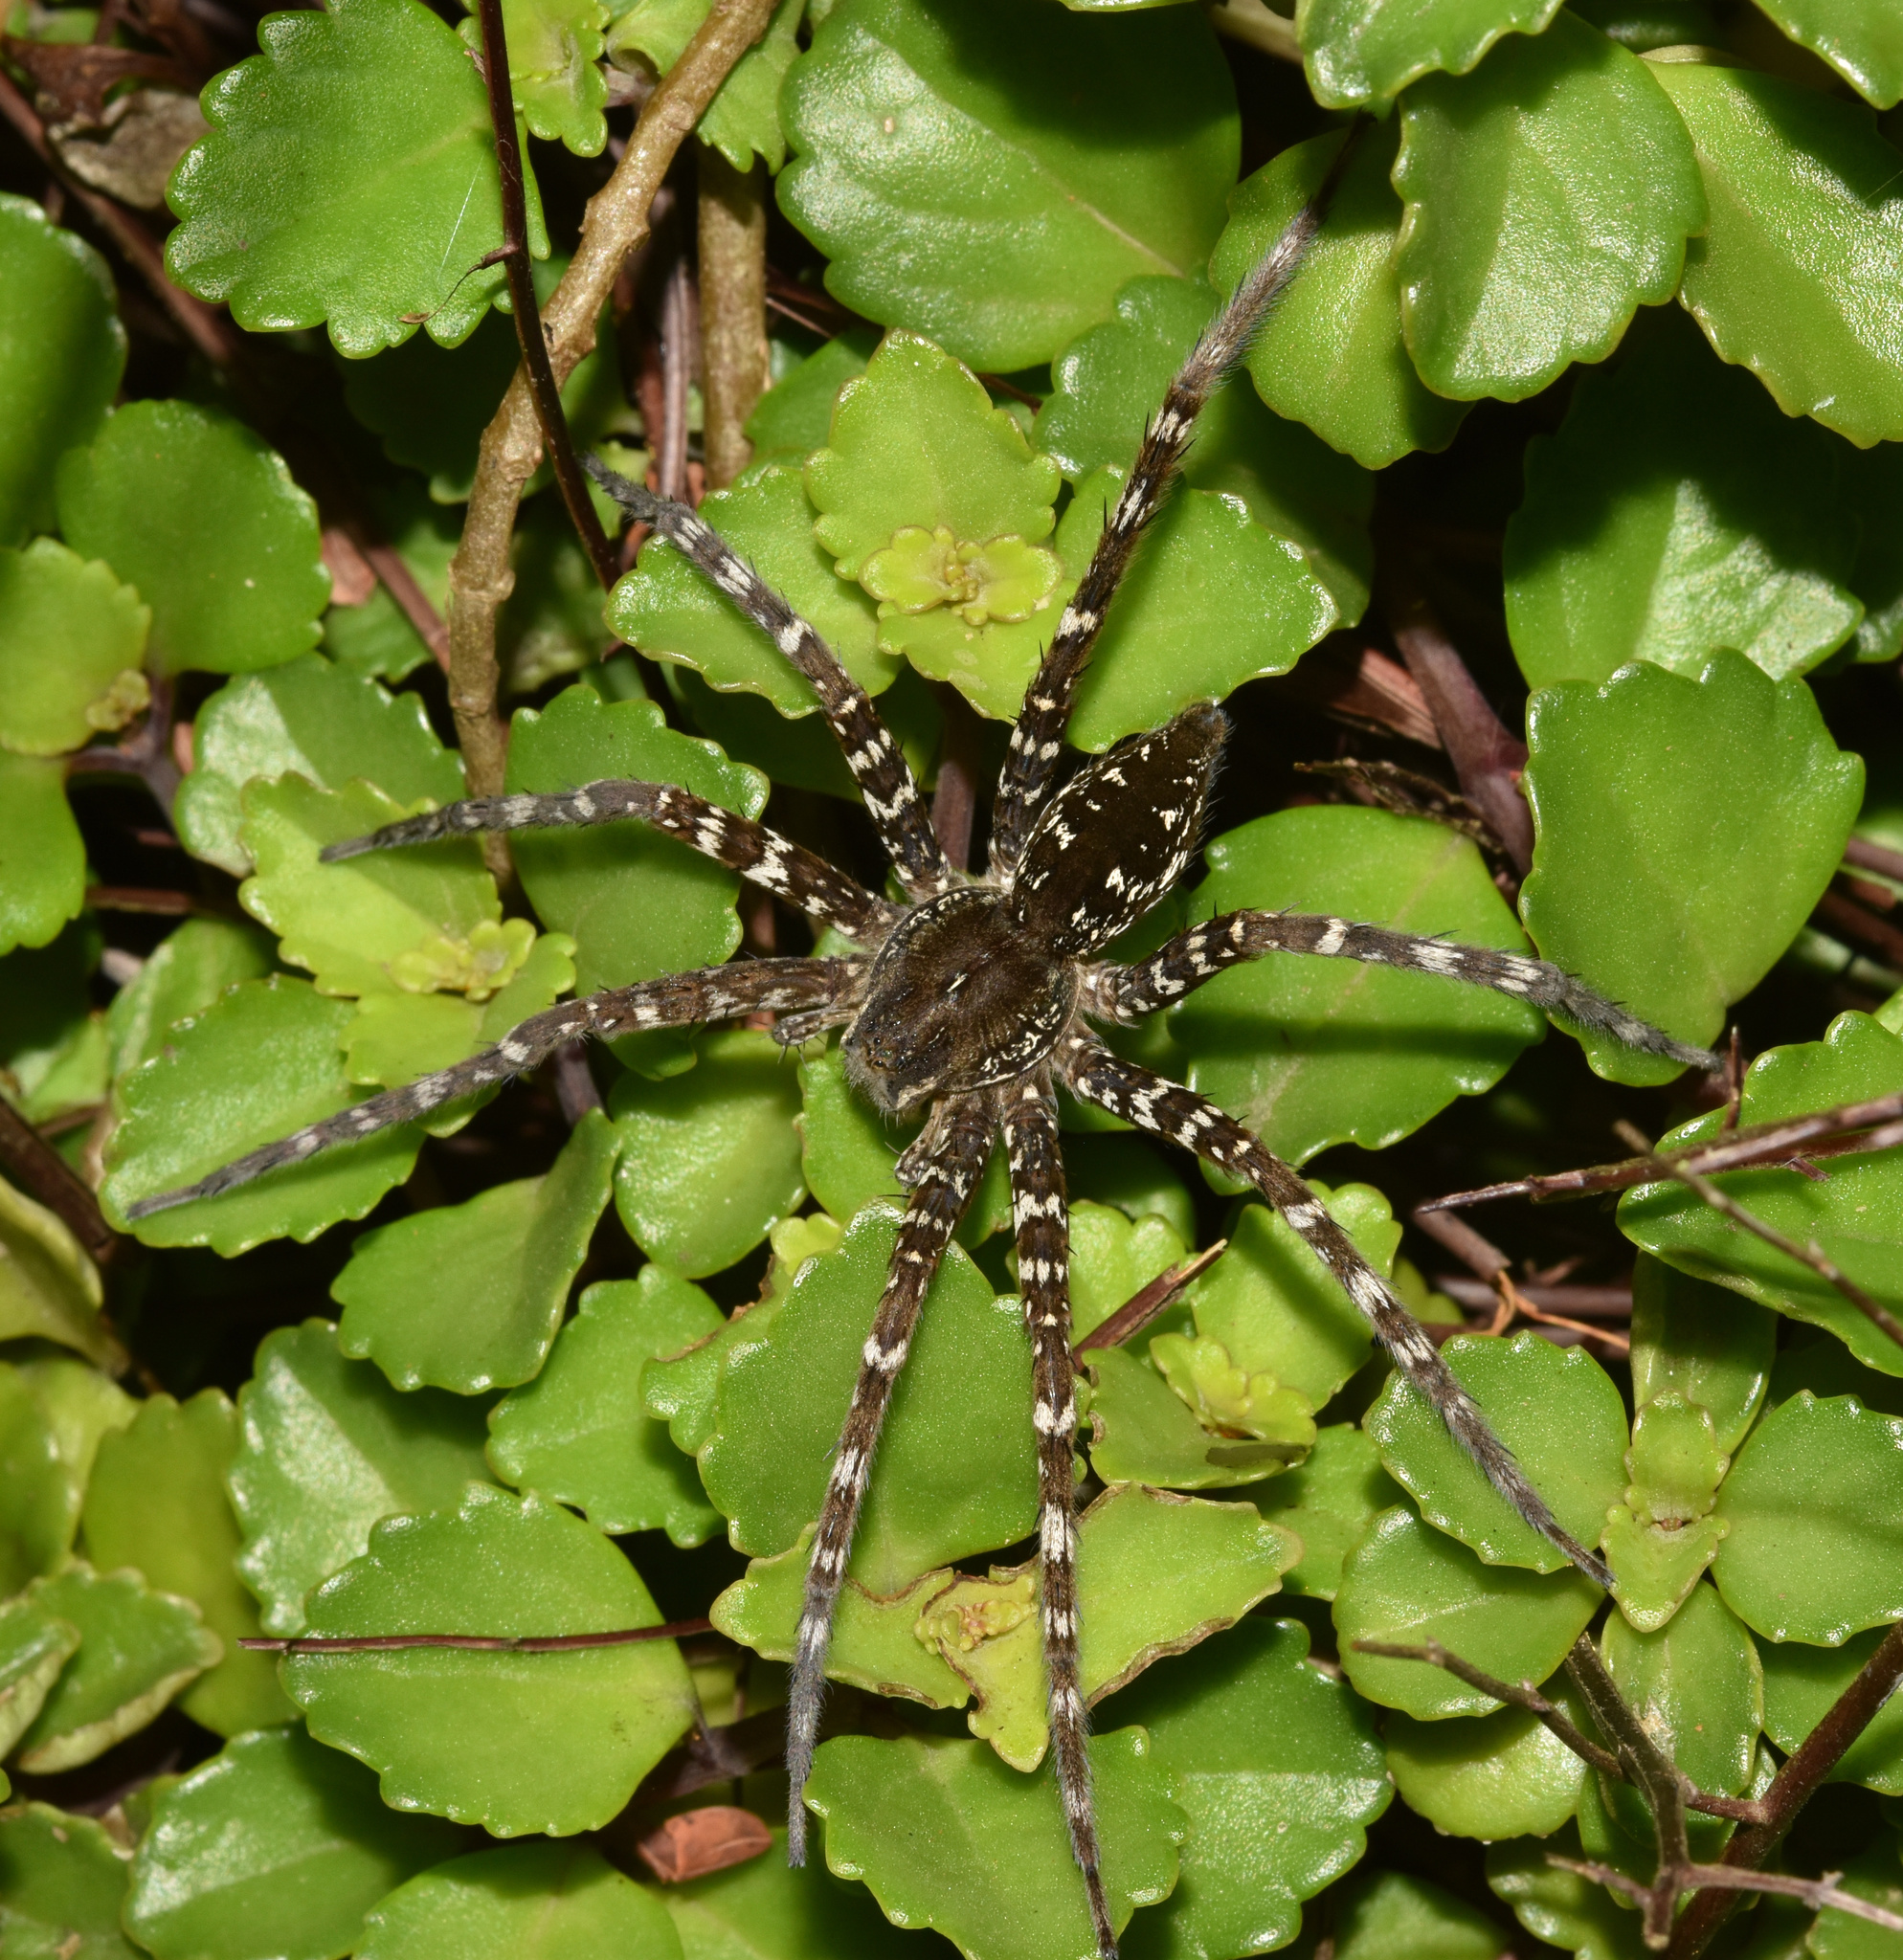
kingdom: Animalia
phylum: Arthropoda
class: Arachnida
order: Araneae
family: Pisauridae
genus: Nilus
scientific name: Nilus curtus
